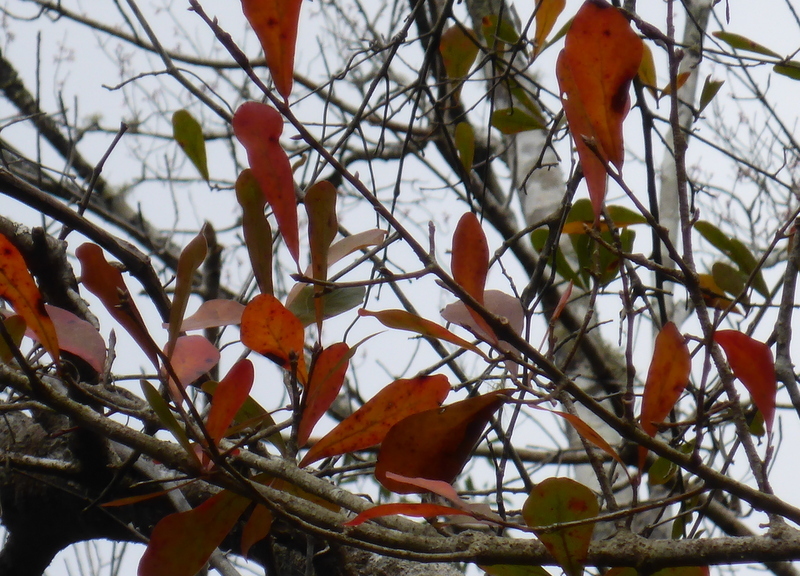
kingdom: Plantae
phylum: Tracheophyta
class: Magnoliopsida
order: Fagales
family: Fagaceae
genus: Quercus
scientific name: Quercus nigra
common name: Water oak
